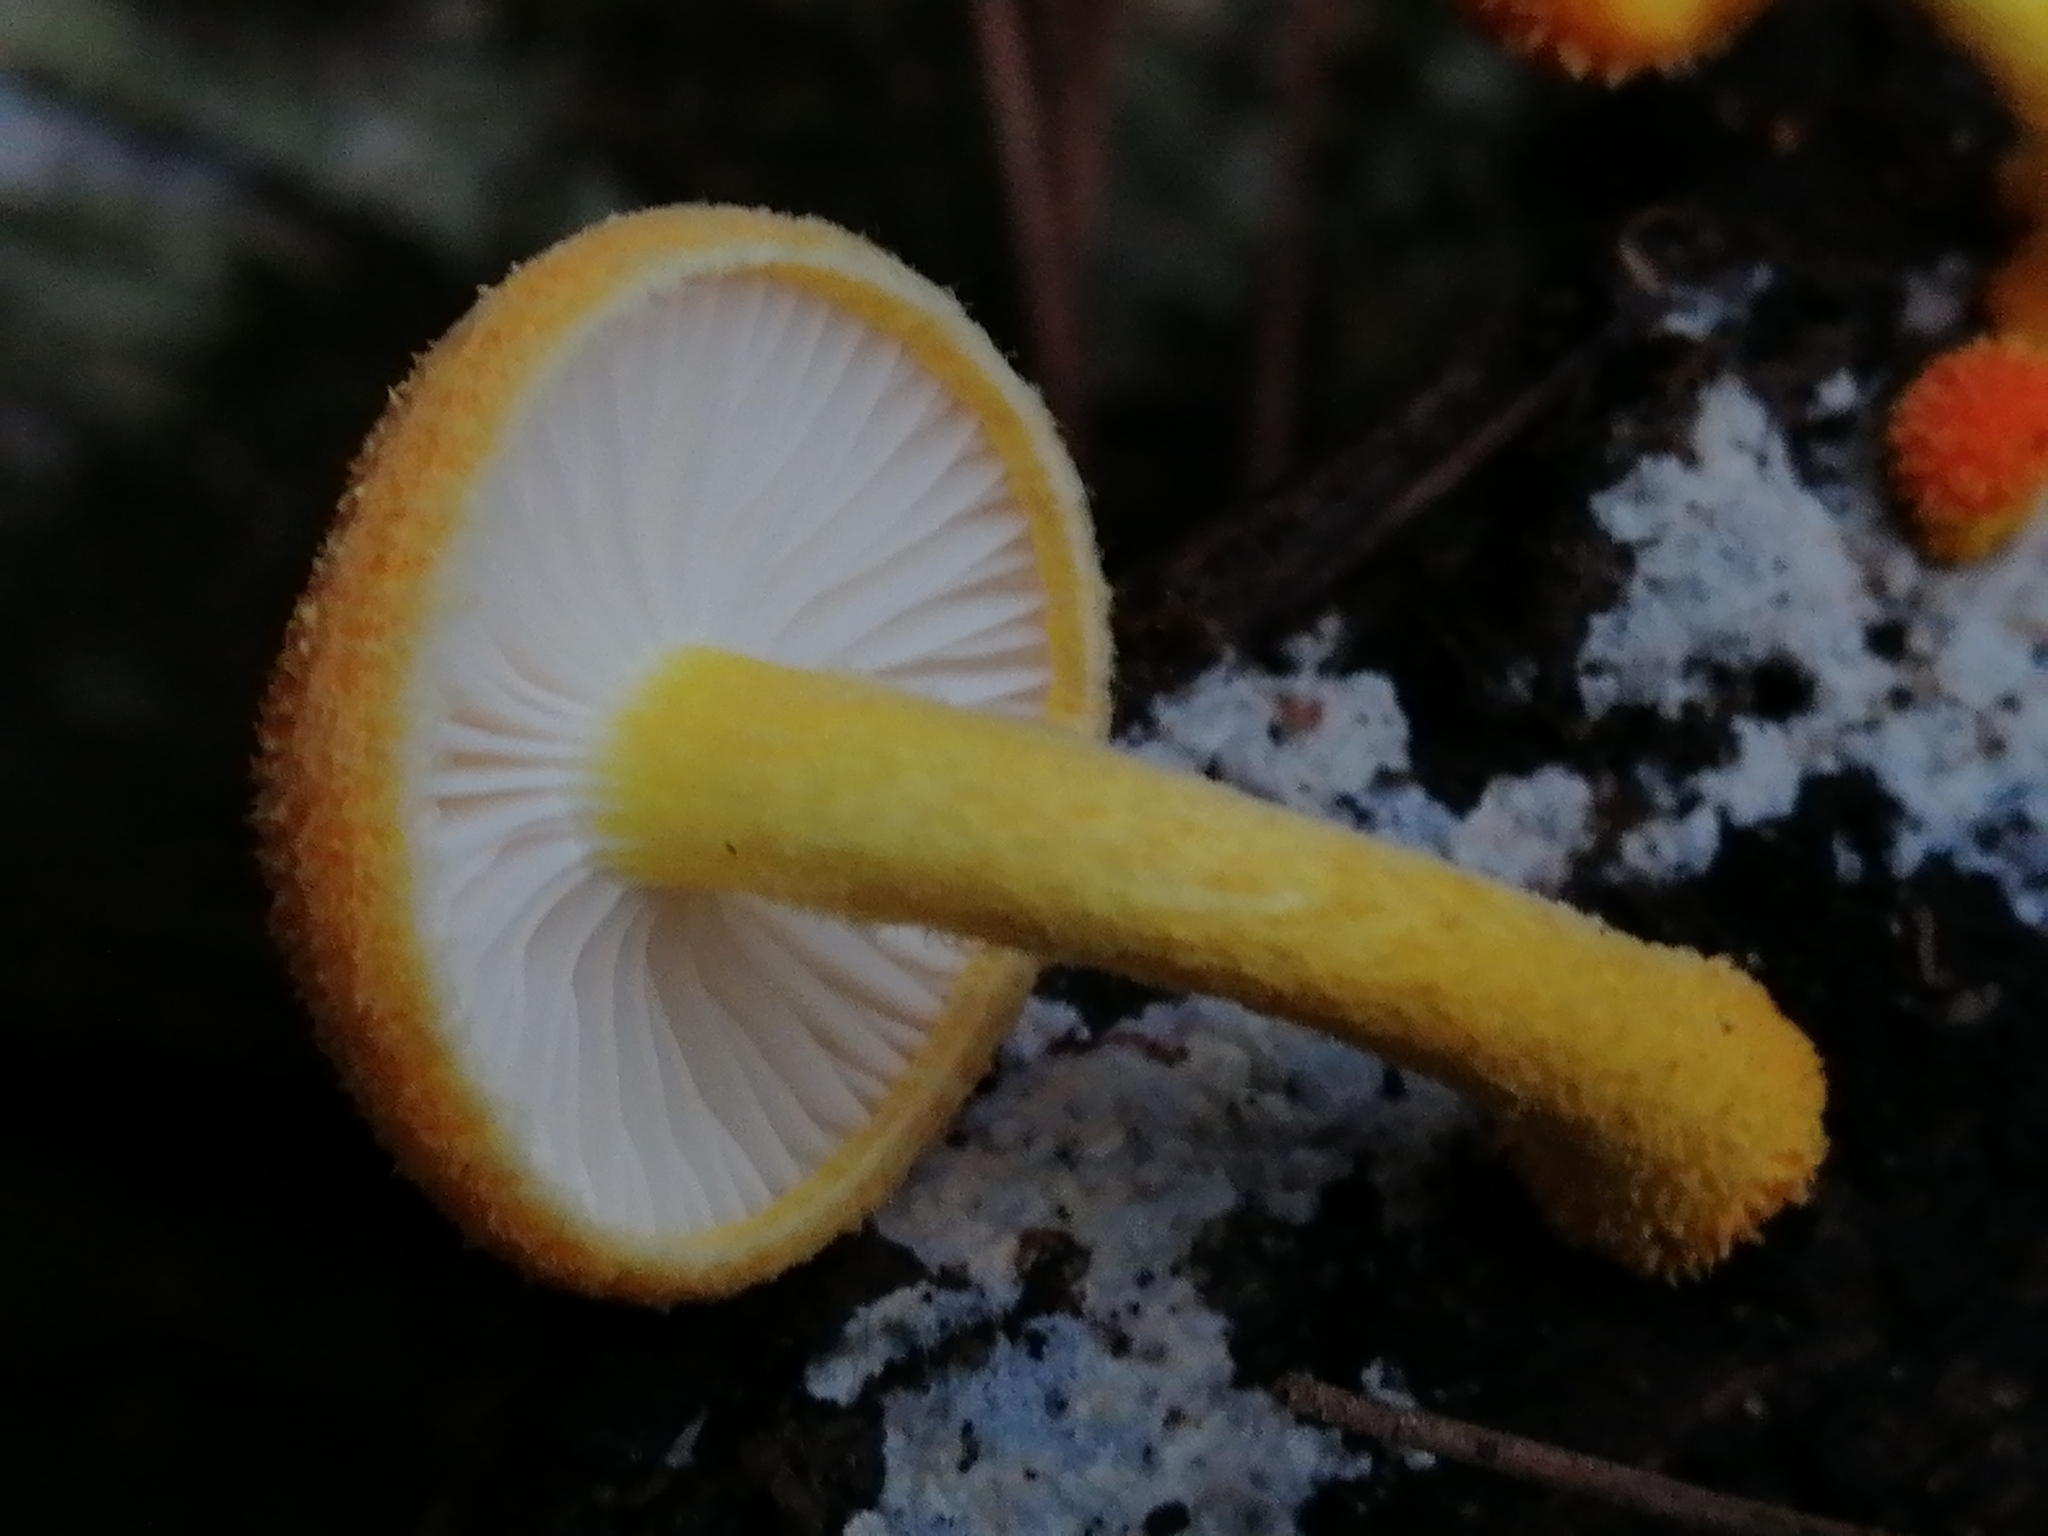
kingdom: Fungi
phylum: Basidiomycota
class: Agaricomycetes
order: Agaricales
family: Physalacriaceae
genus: Cyptotrama
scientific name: Cyptotrama asprata
